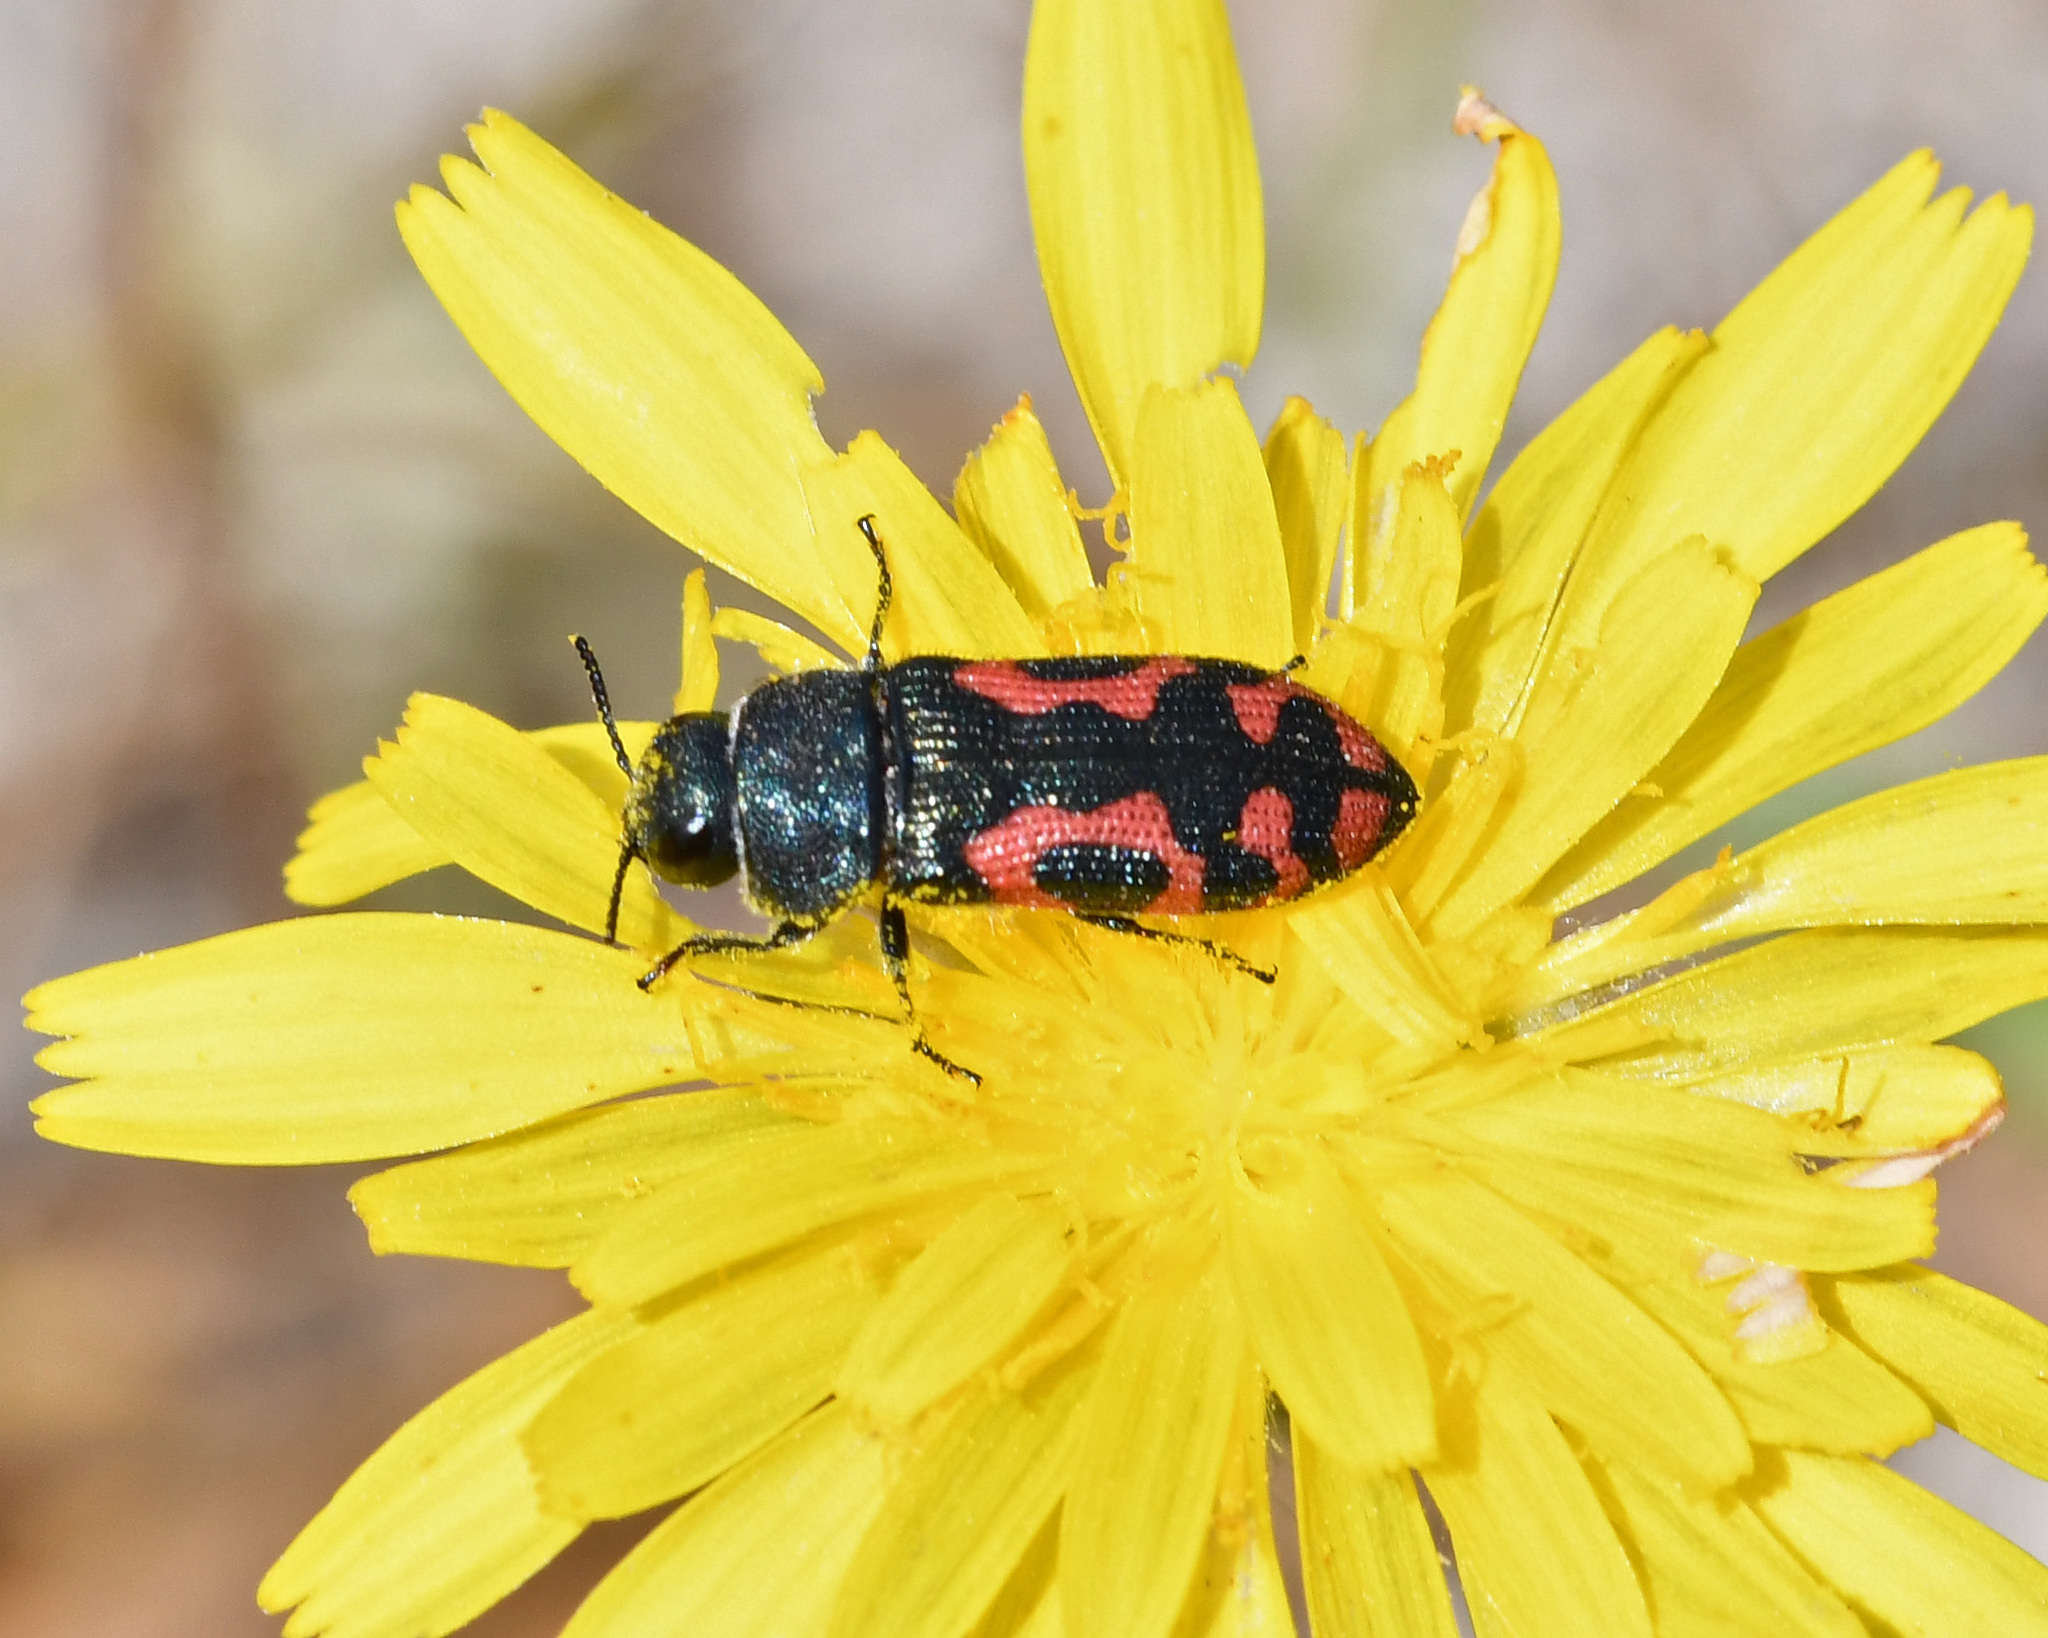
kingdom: Animalia
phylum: Arthropoda
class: Insecta
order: Coleoptera
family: Buprestidae
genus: Acmaeodera
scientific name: Acmaeodera ottomana
